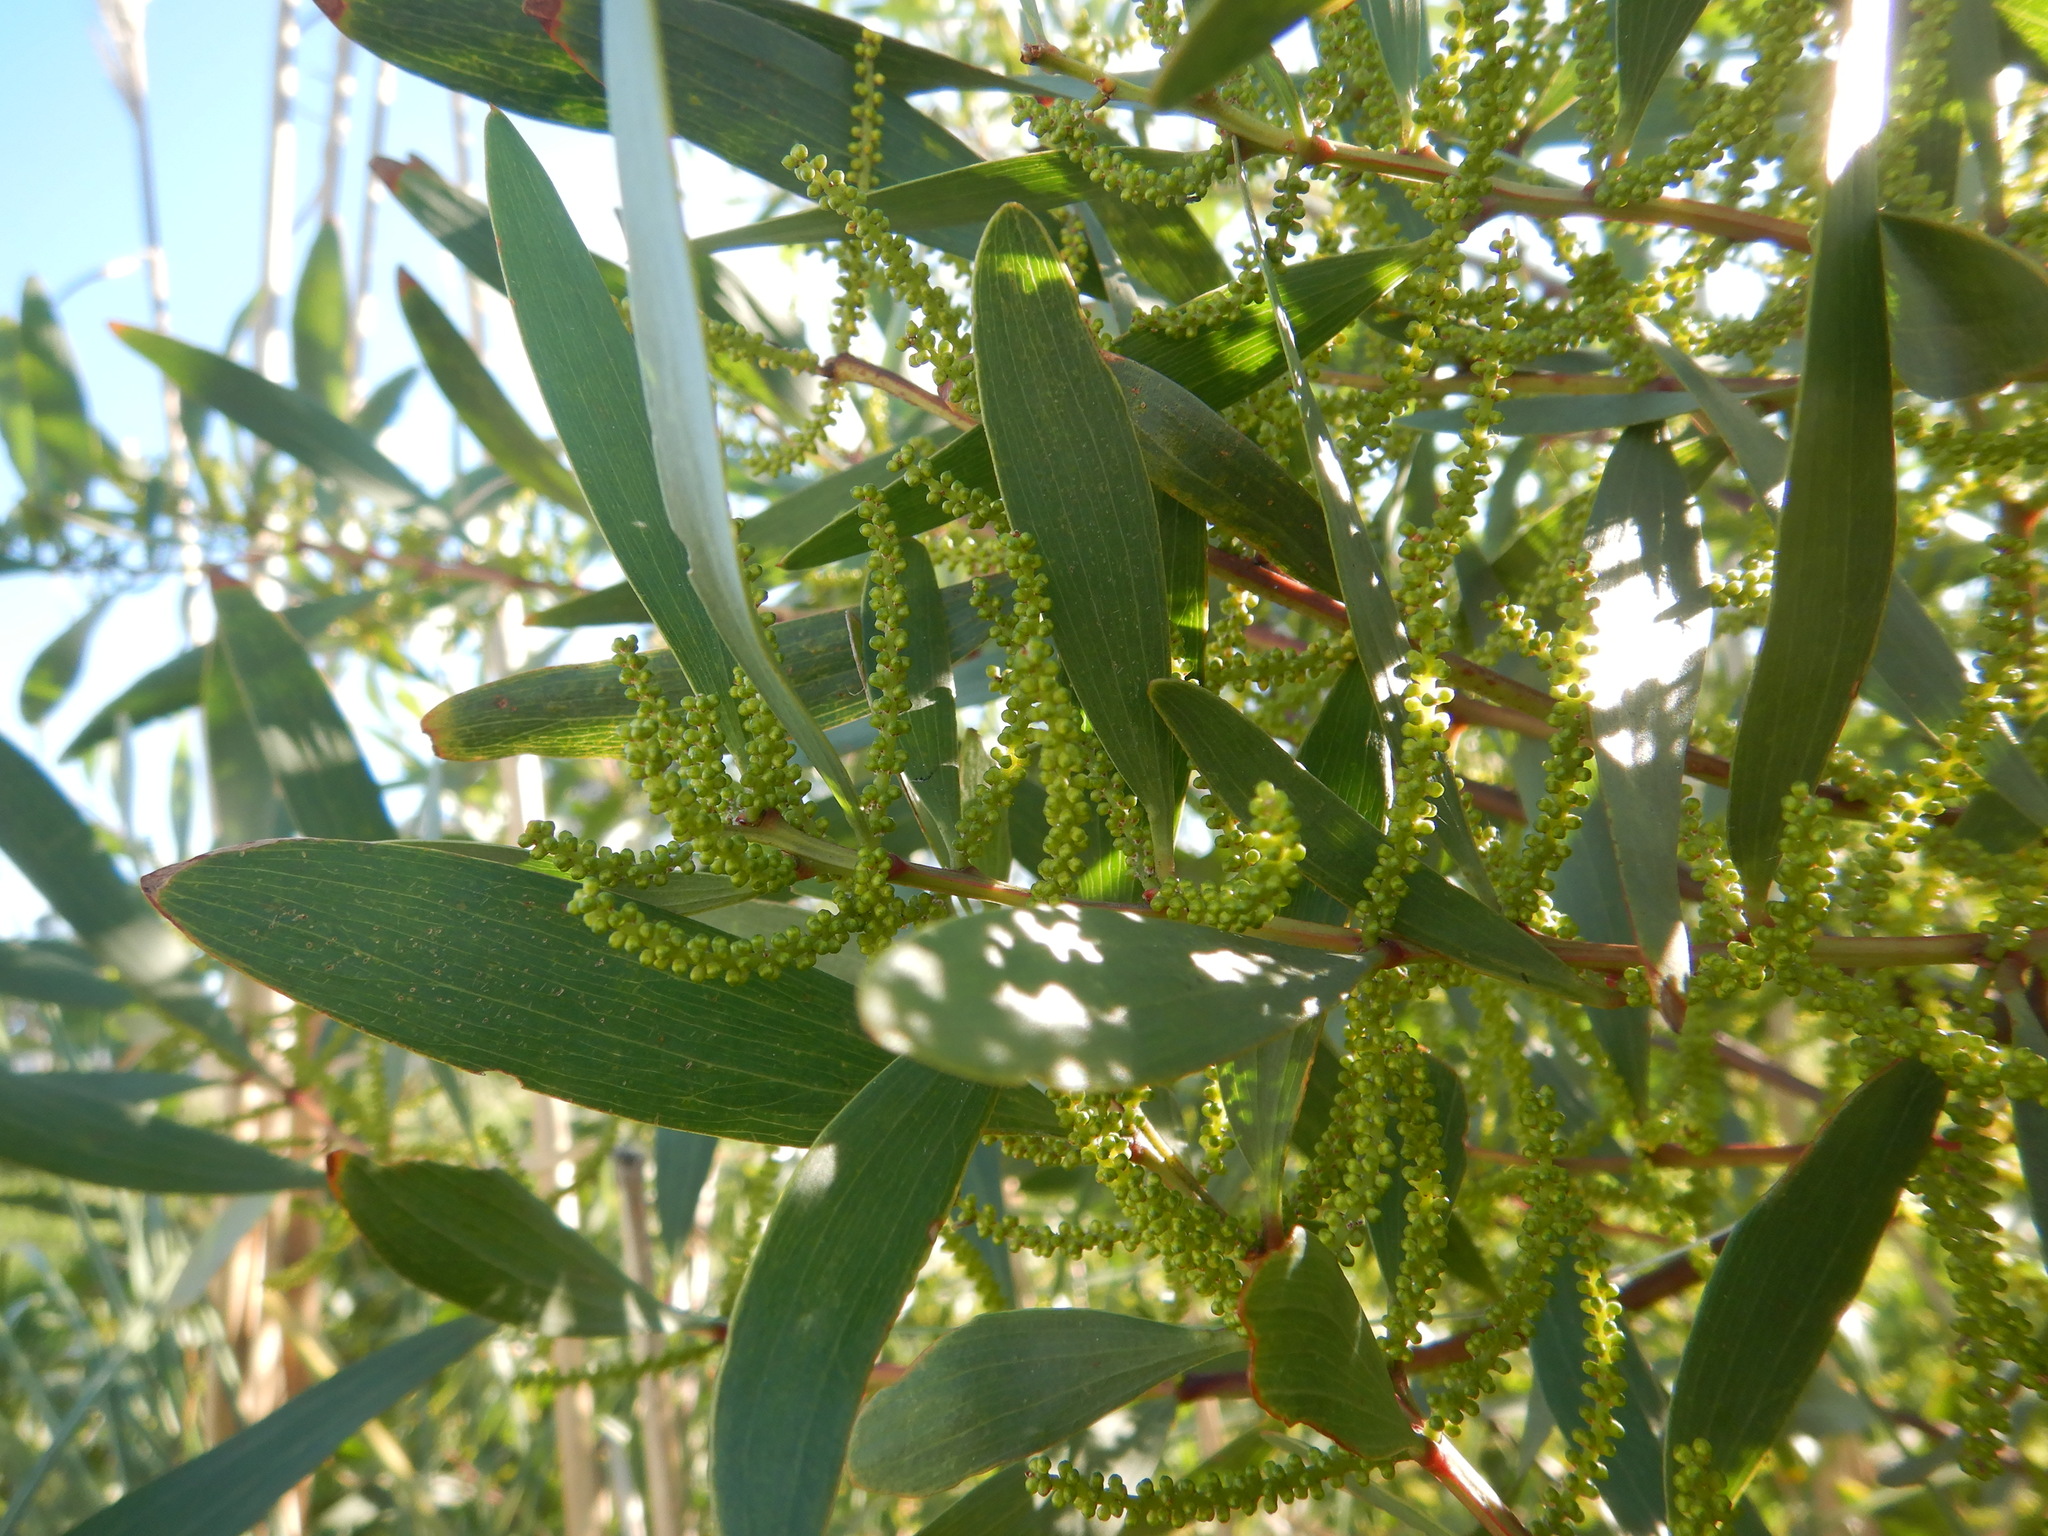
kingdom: Plantae
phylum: Tracheophyta
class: Magnoliopsida
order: Fabales
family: Fabaceae
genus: Acacia
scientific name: Acacia longifolia
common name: Sydney golden wattle
